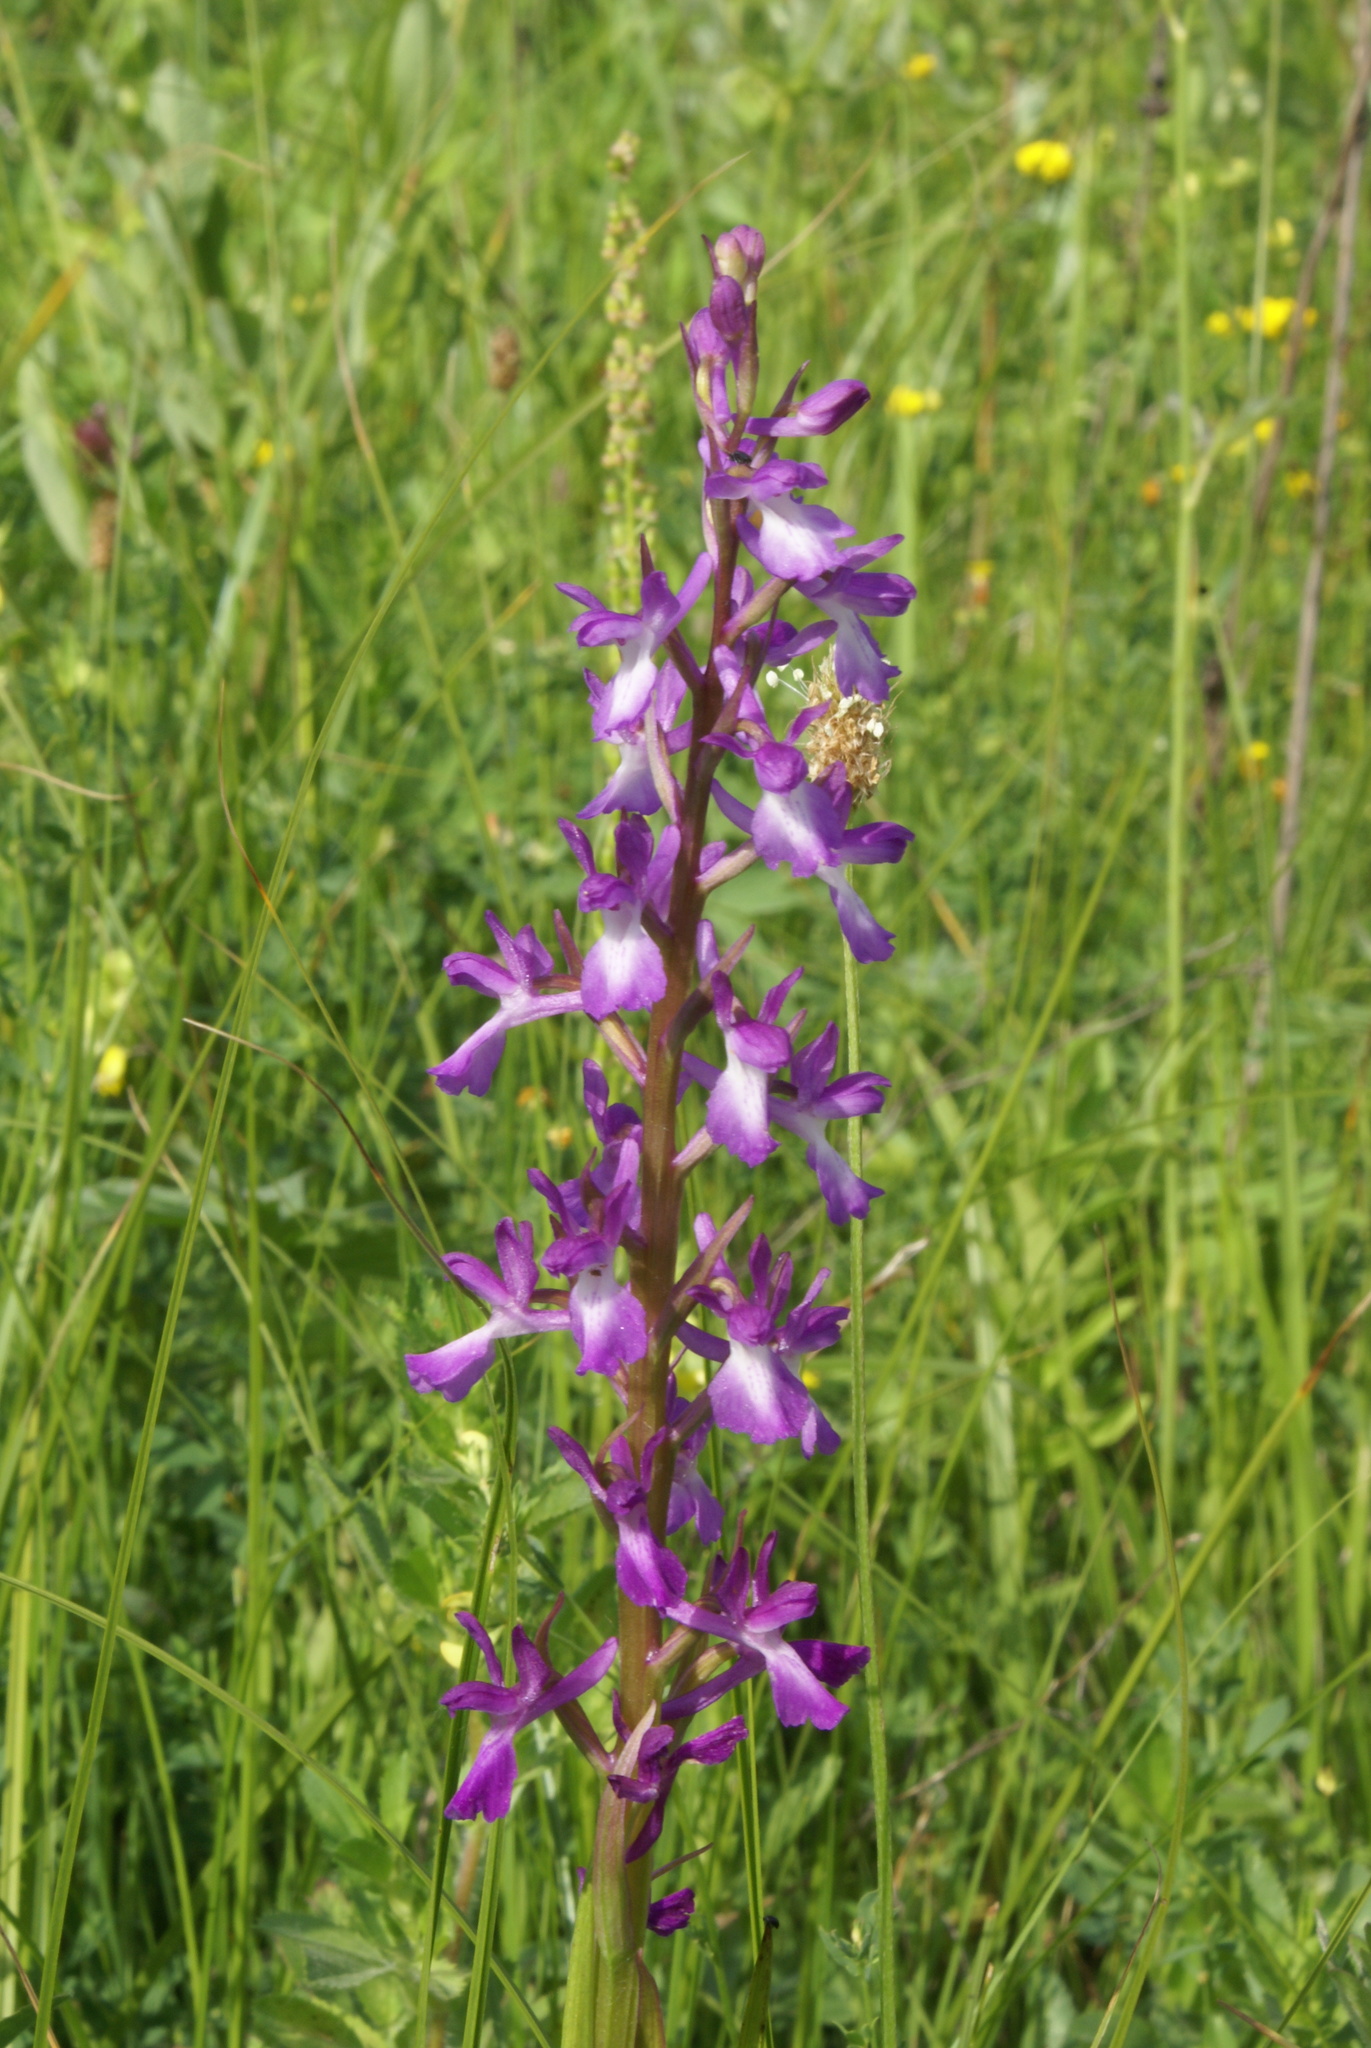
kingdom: Plantae
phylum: Tracheophyta
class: Liliopsida
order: Asparagales
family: Orchidaceae
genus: Anacamptis
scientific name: Anacamptis palustris
